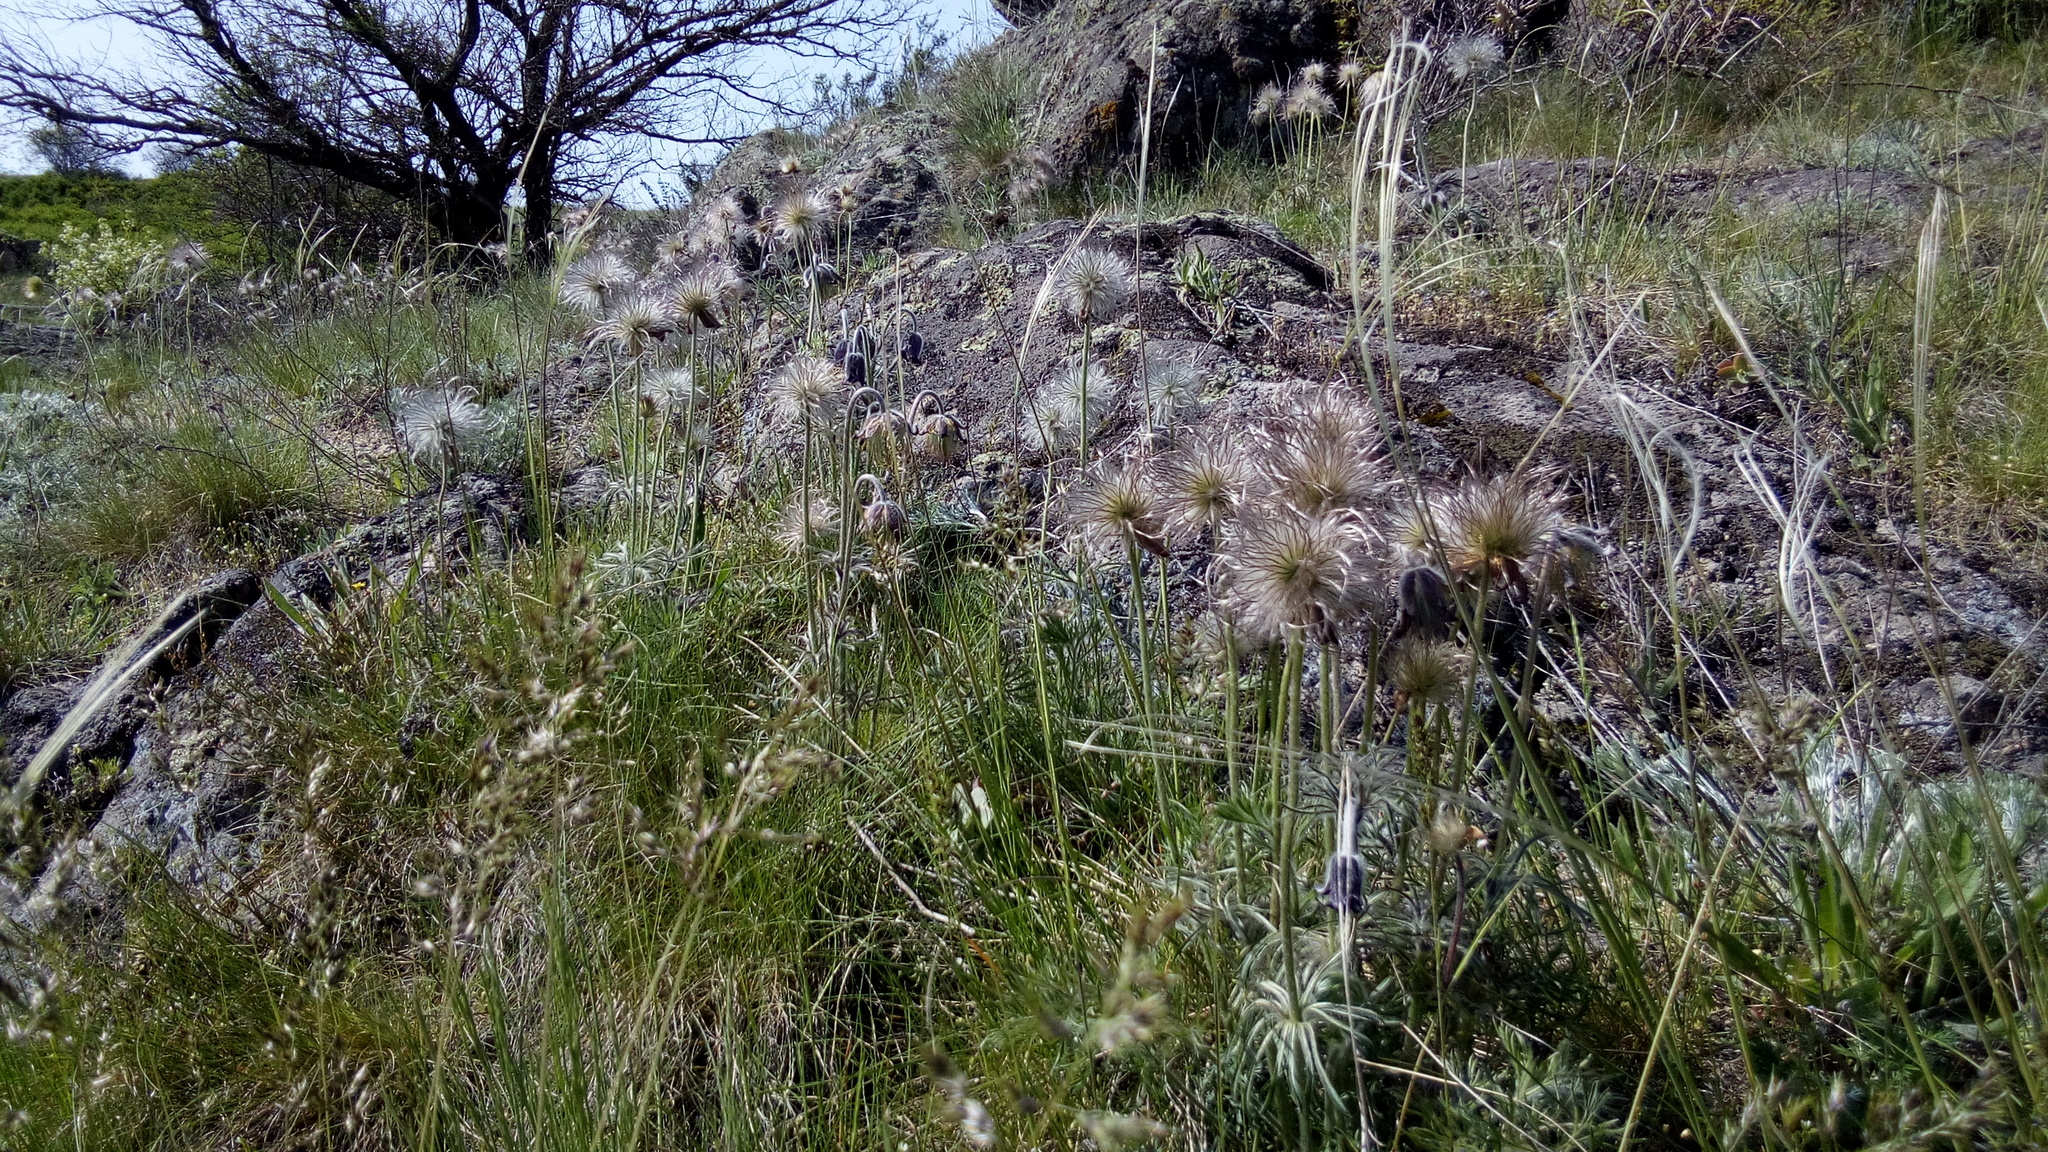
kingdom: Plantae
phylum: Tracheophyta
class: Magnoliopsida
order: Ranunculales
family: Ranunculaceae
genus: Pulsatilla
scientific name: Pulsatilla pratensis
